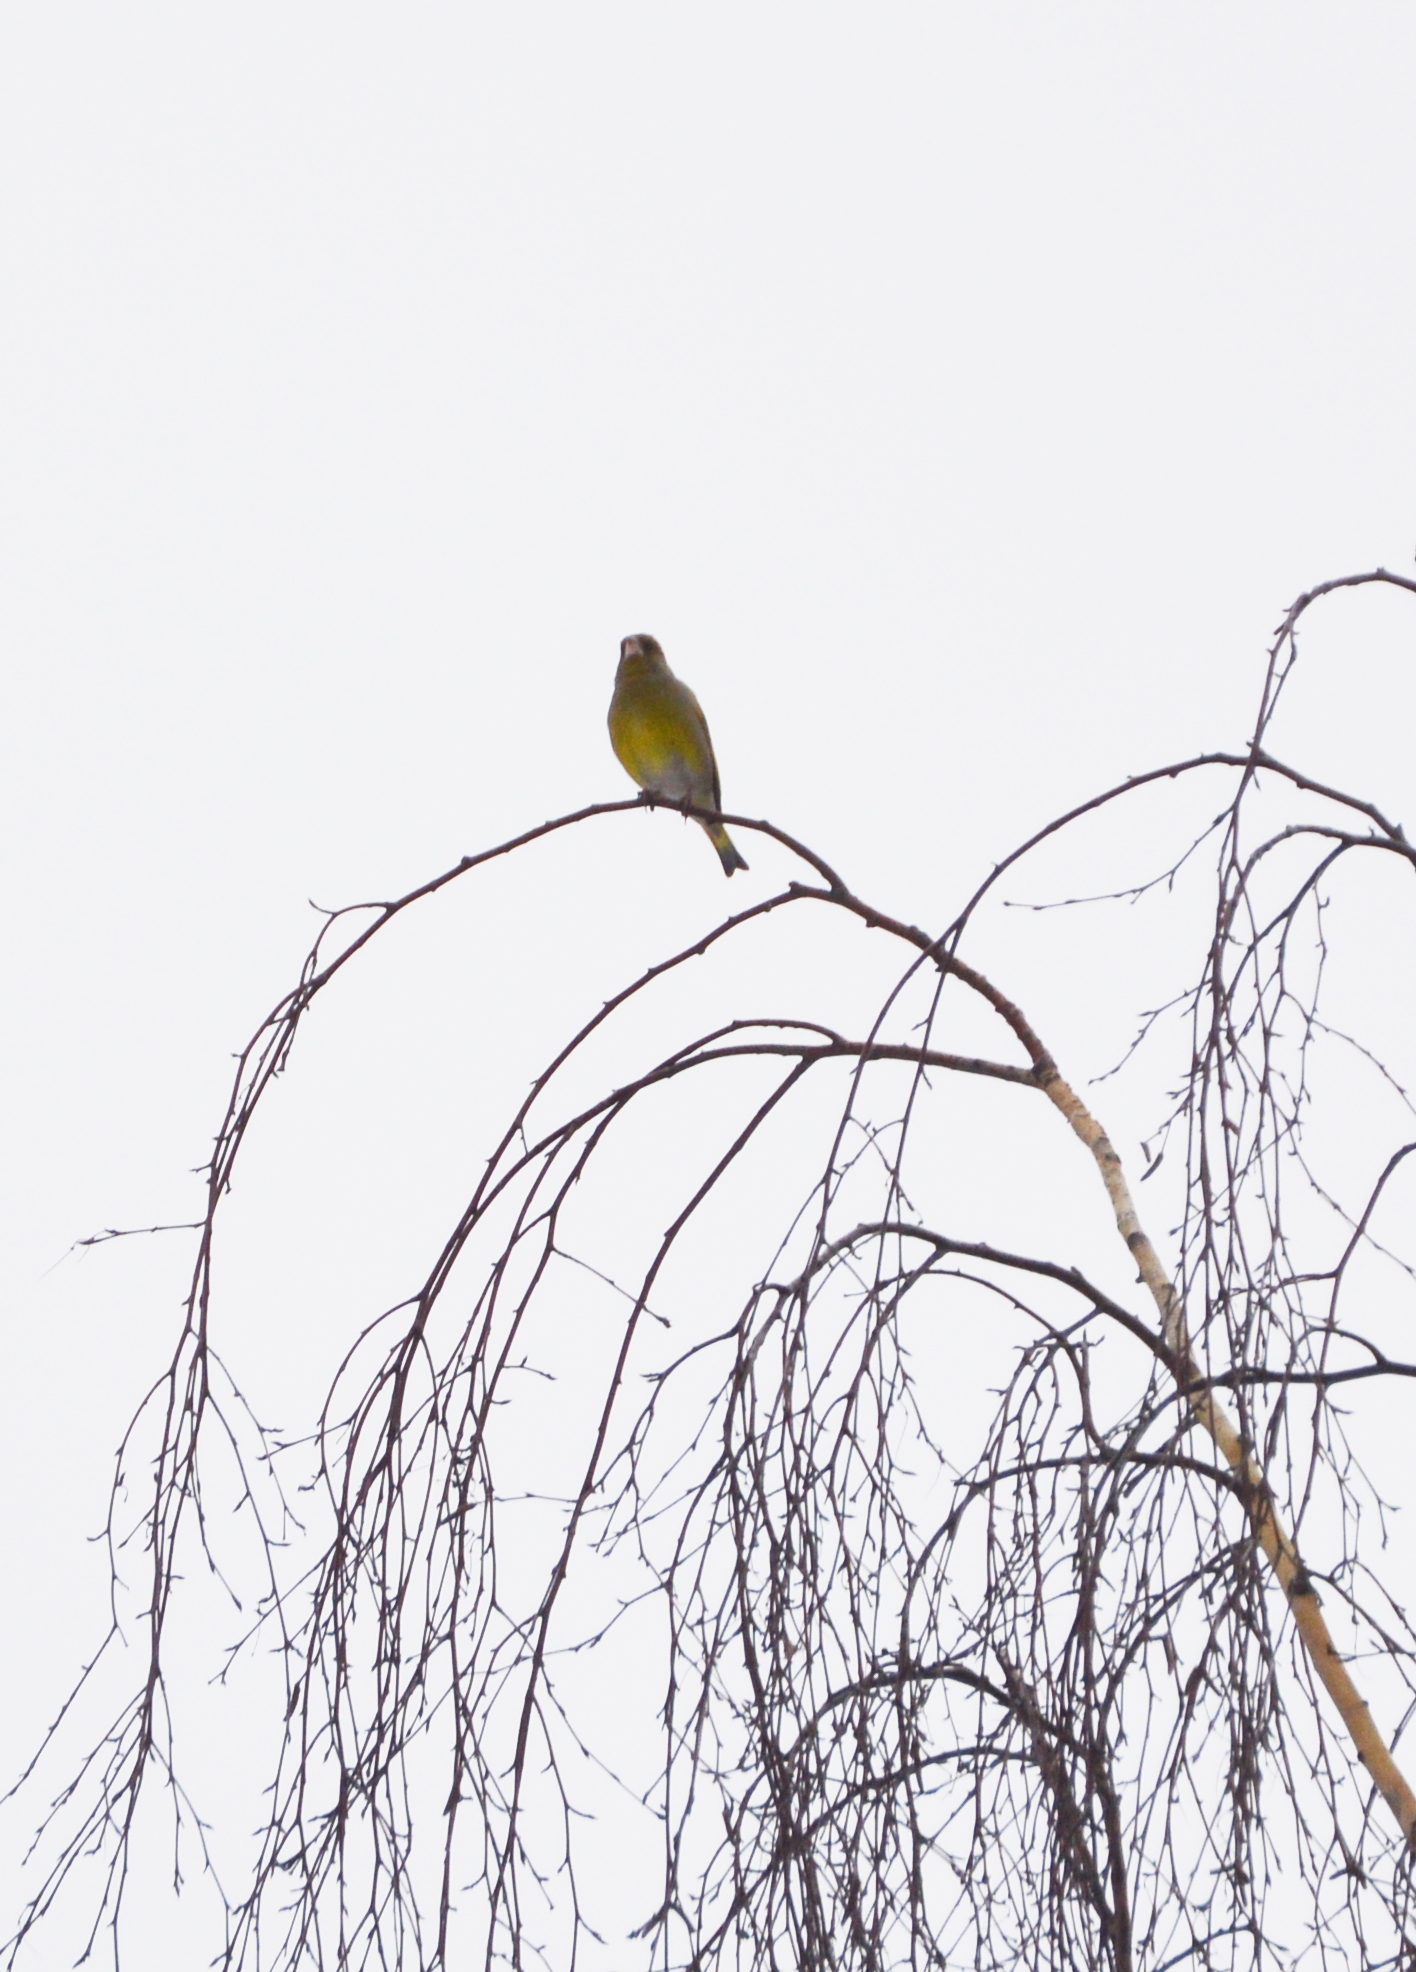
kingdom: Plantae
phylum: Tracheophyta
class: Liliopsida
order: Poales
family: Poaceae
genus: Chloris
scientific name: Chloris chloris
